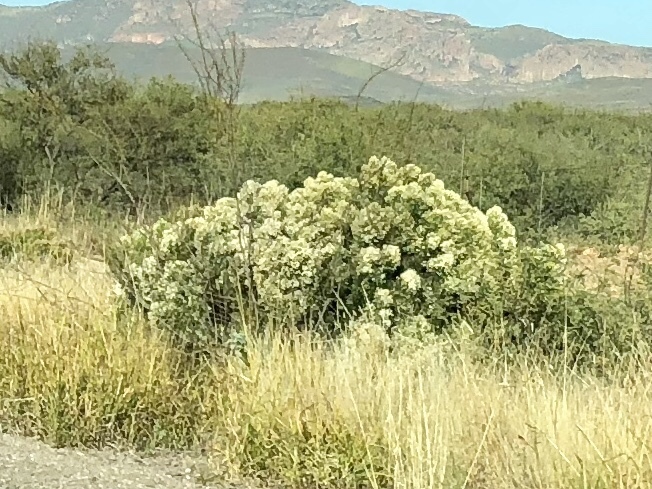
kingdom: Plantae
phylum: Tracheophyta
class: Magnoliopsida
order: Asterales
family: Asteraceae
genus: Baccharis
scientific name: Baccharis sarothroides
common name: Desert-broom
